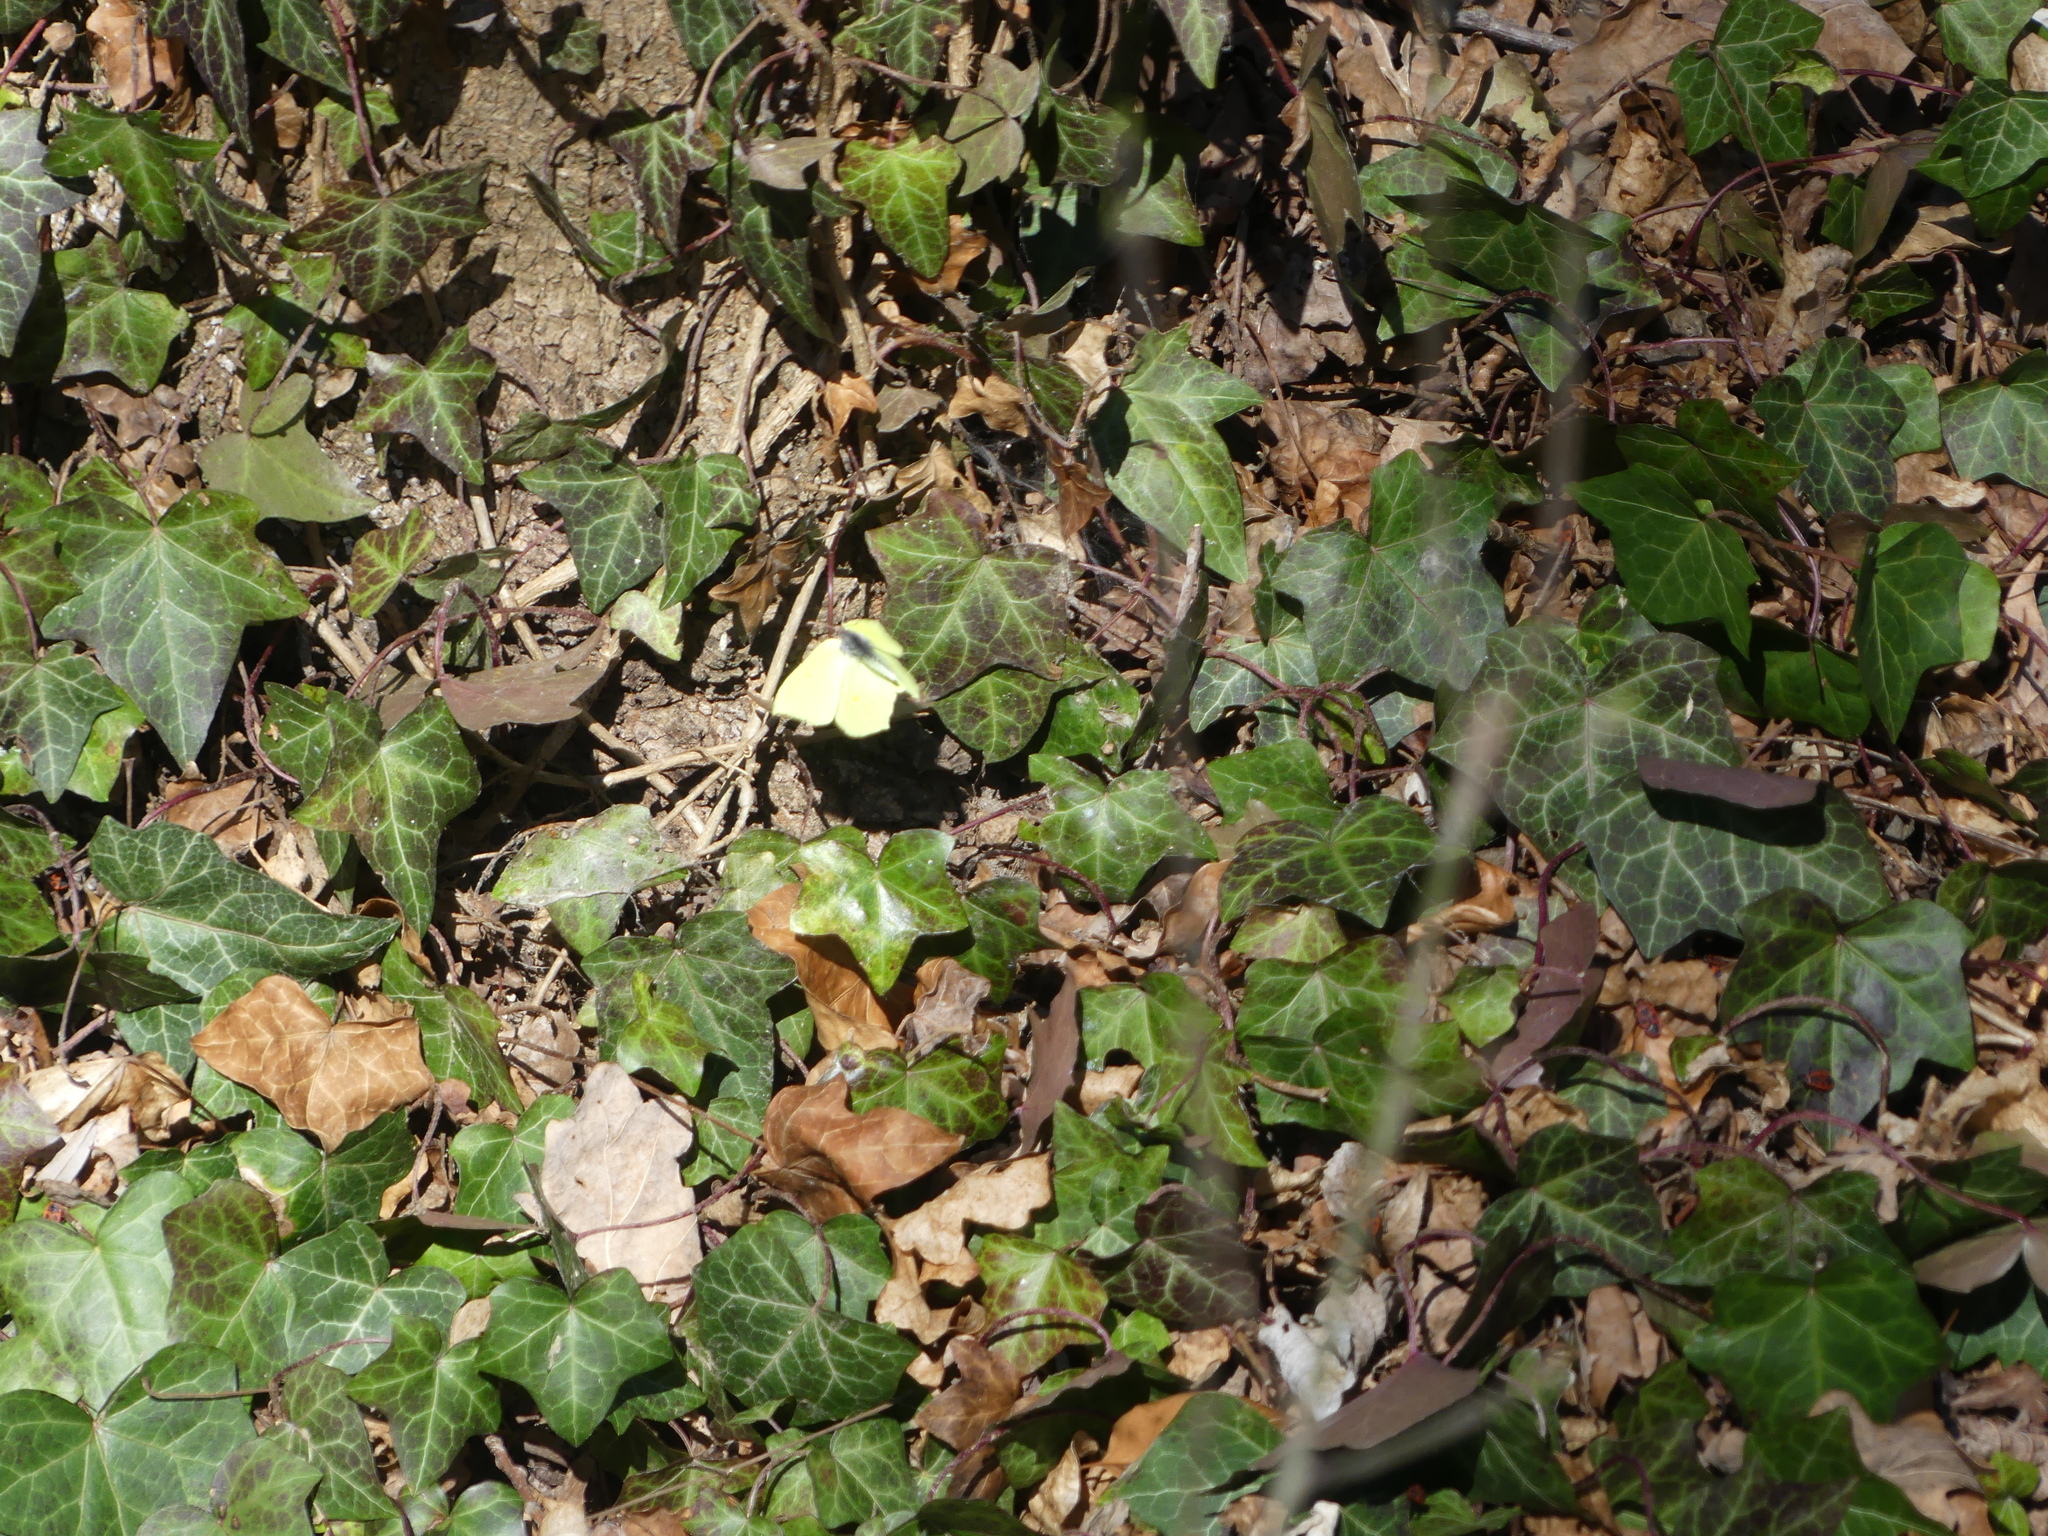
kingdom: Animalia
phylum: Arthropoda
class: Insecta
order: Lepidoptera
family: Pieridae
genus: Gonepteryx
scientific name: Gonepteryx rhamni
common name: Brimstone
